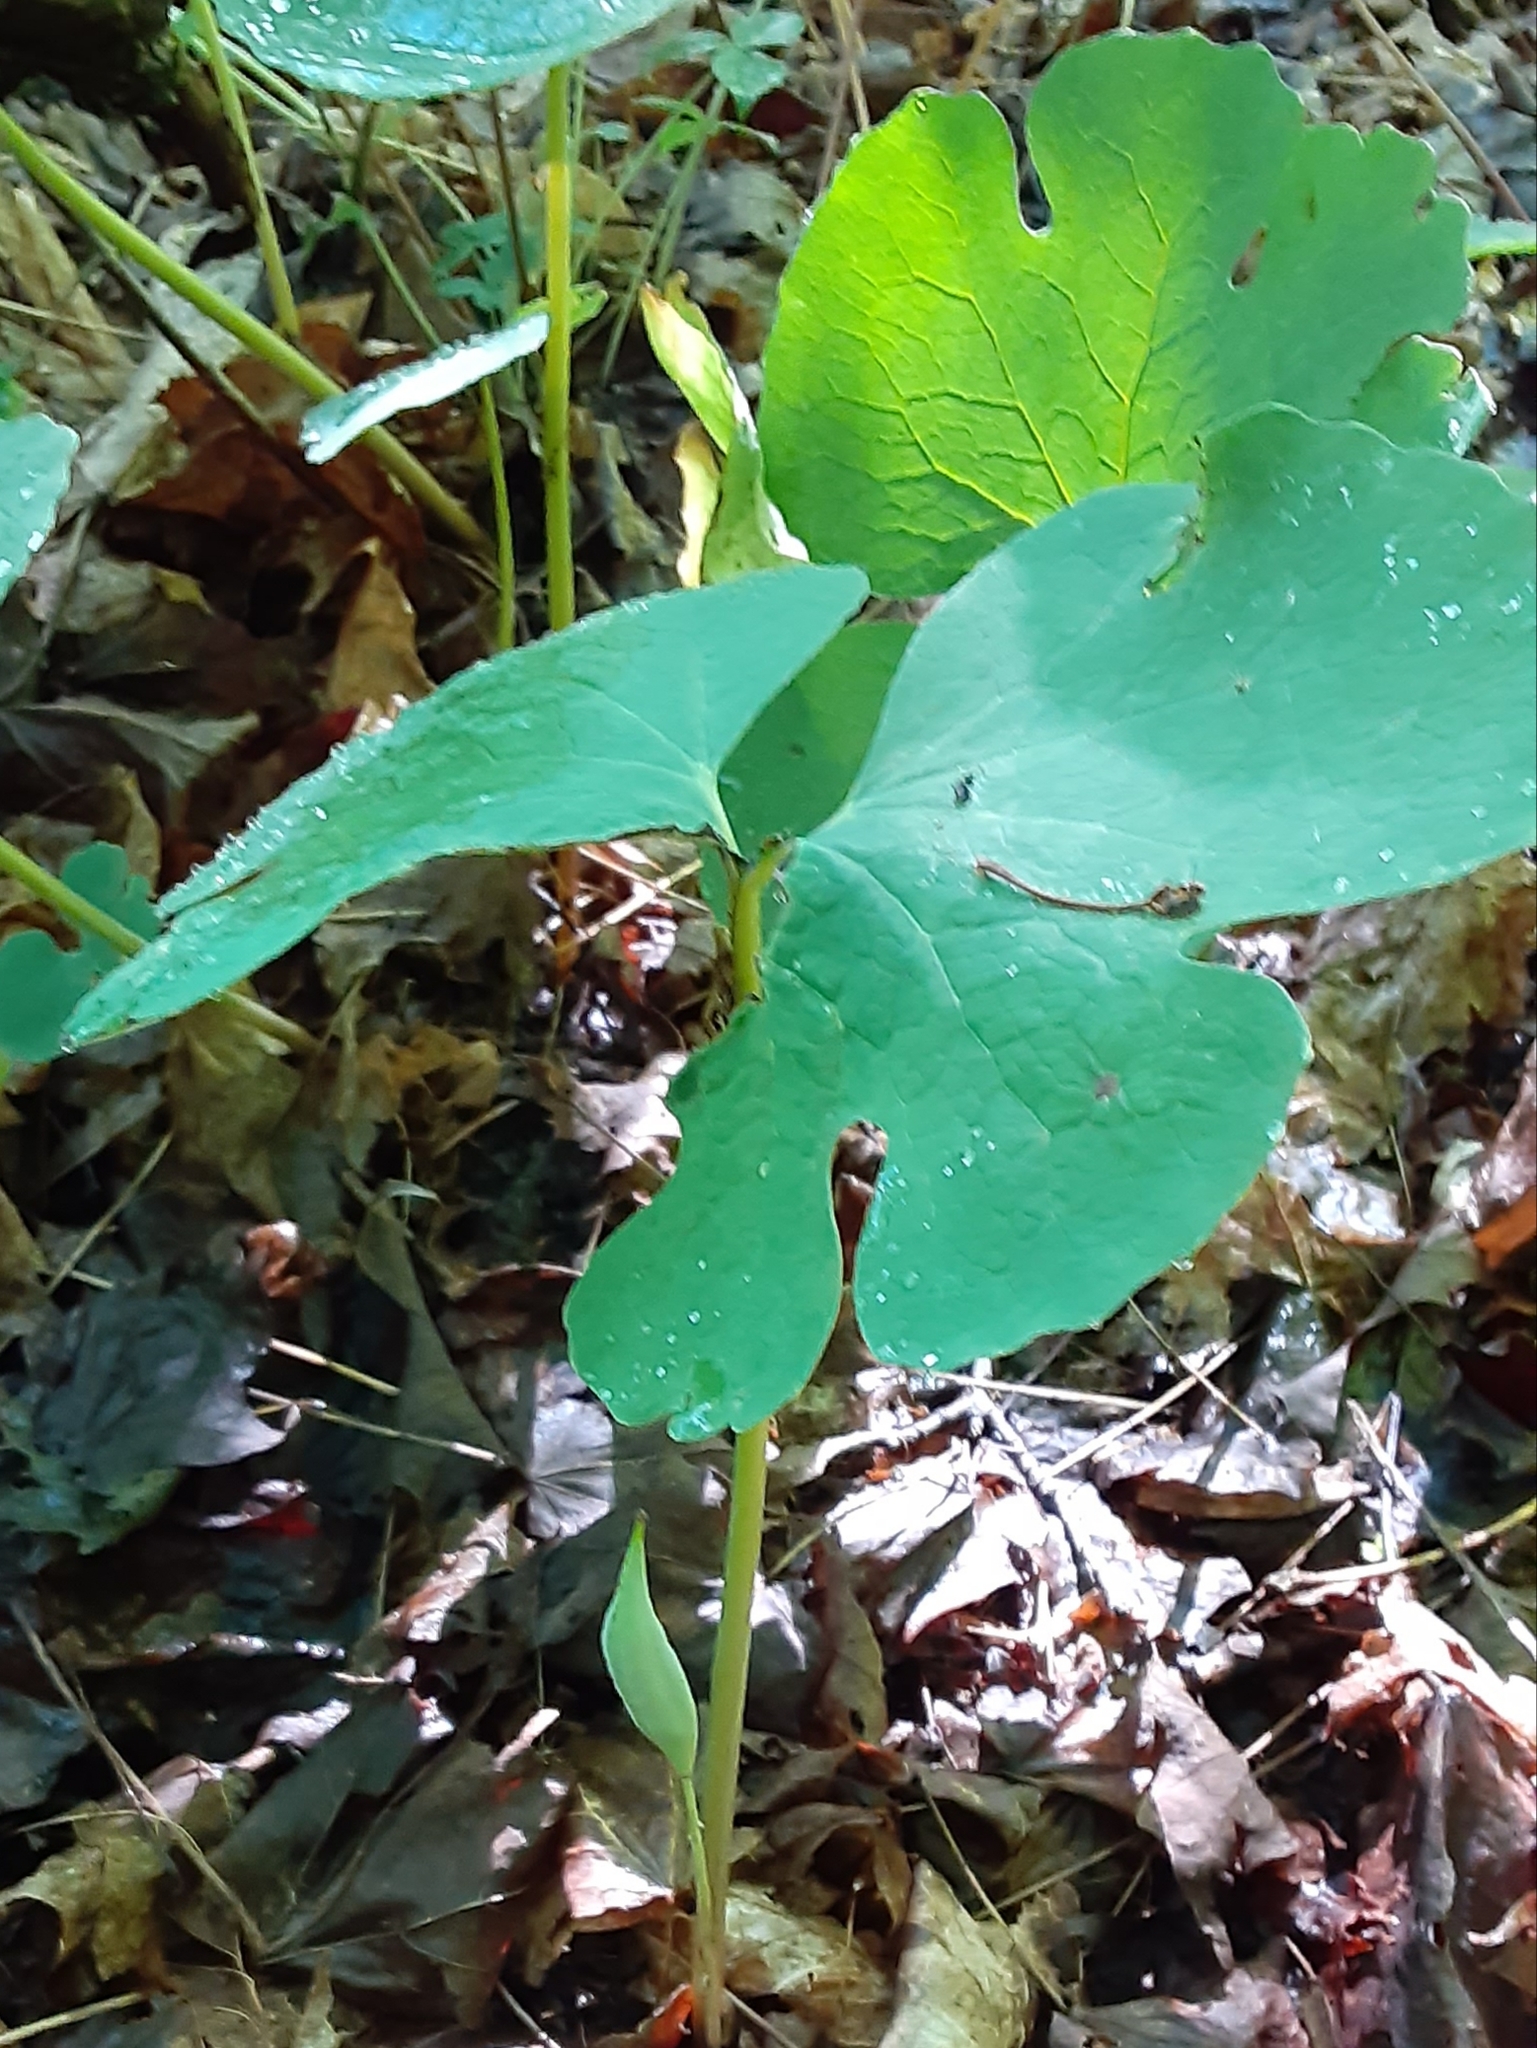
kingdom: Plantae
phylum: Tracheophyta
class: Magnoliopsida
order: Ranunculales
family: Papaveraceae
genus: Sanguinaria
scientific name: Sanguinaria canadensis
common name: Bloodroot
